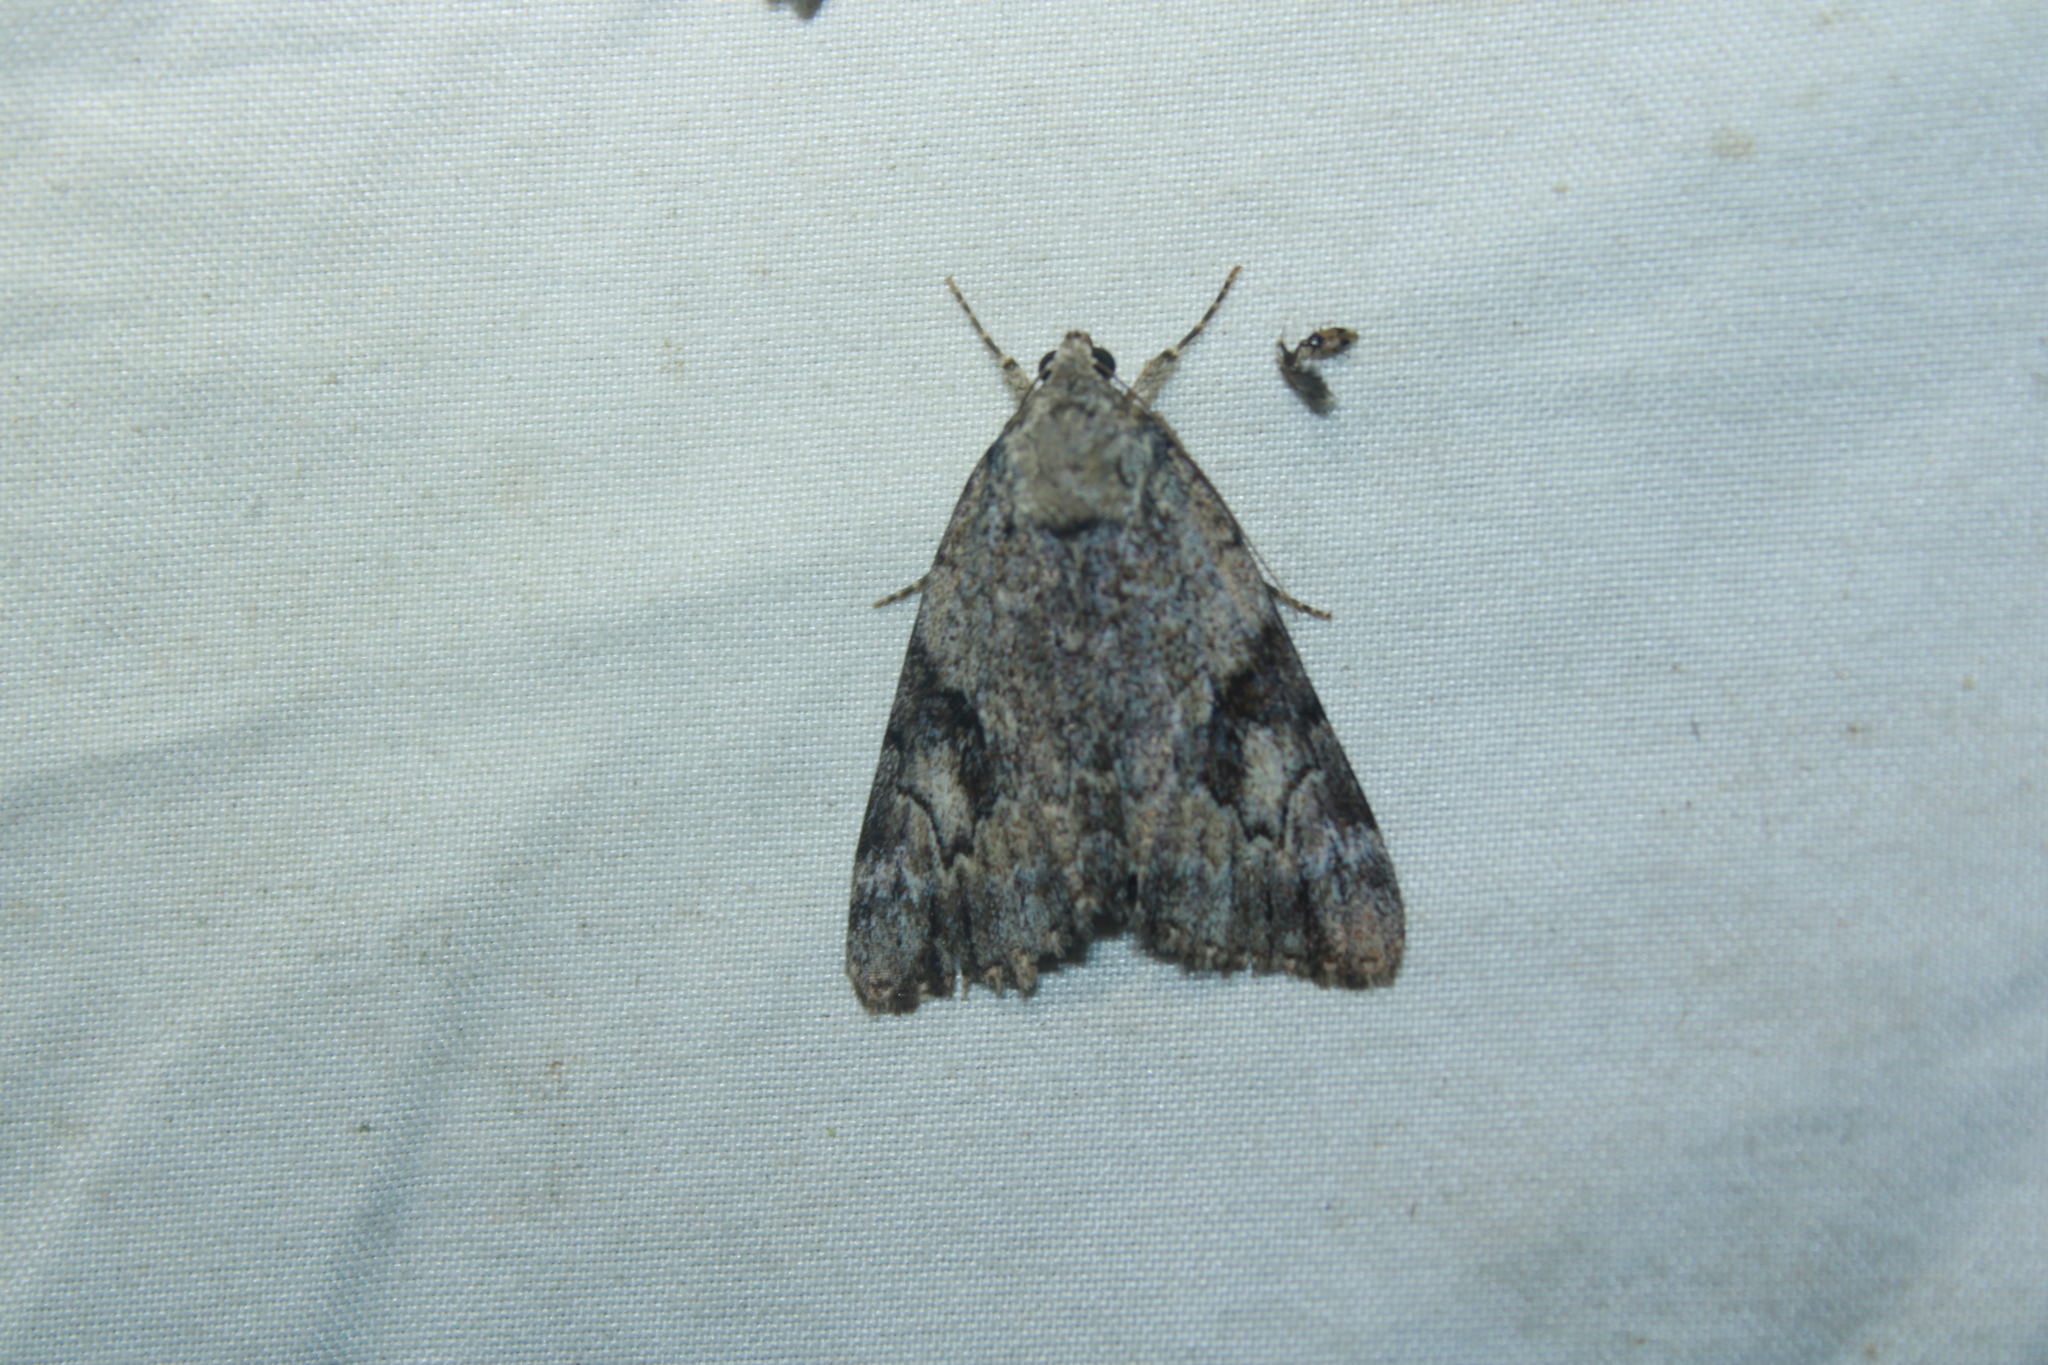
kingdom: Animalia
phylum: Arthropoda
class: Insecta
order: Lepidoptera
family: Erebidae
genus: Catocala
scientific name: Catocala amica
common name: Girlfriend underwing
